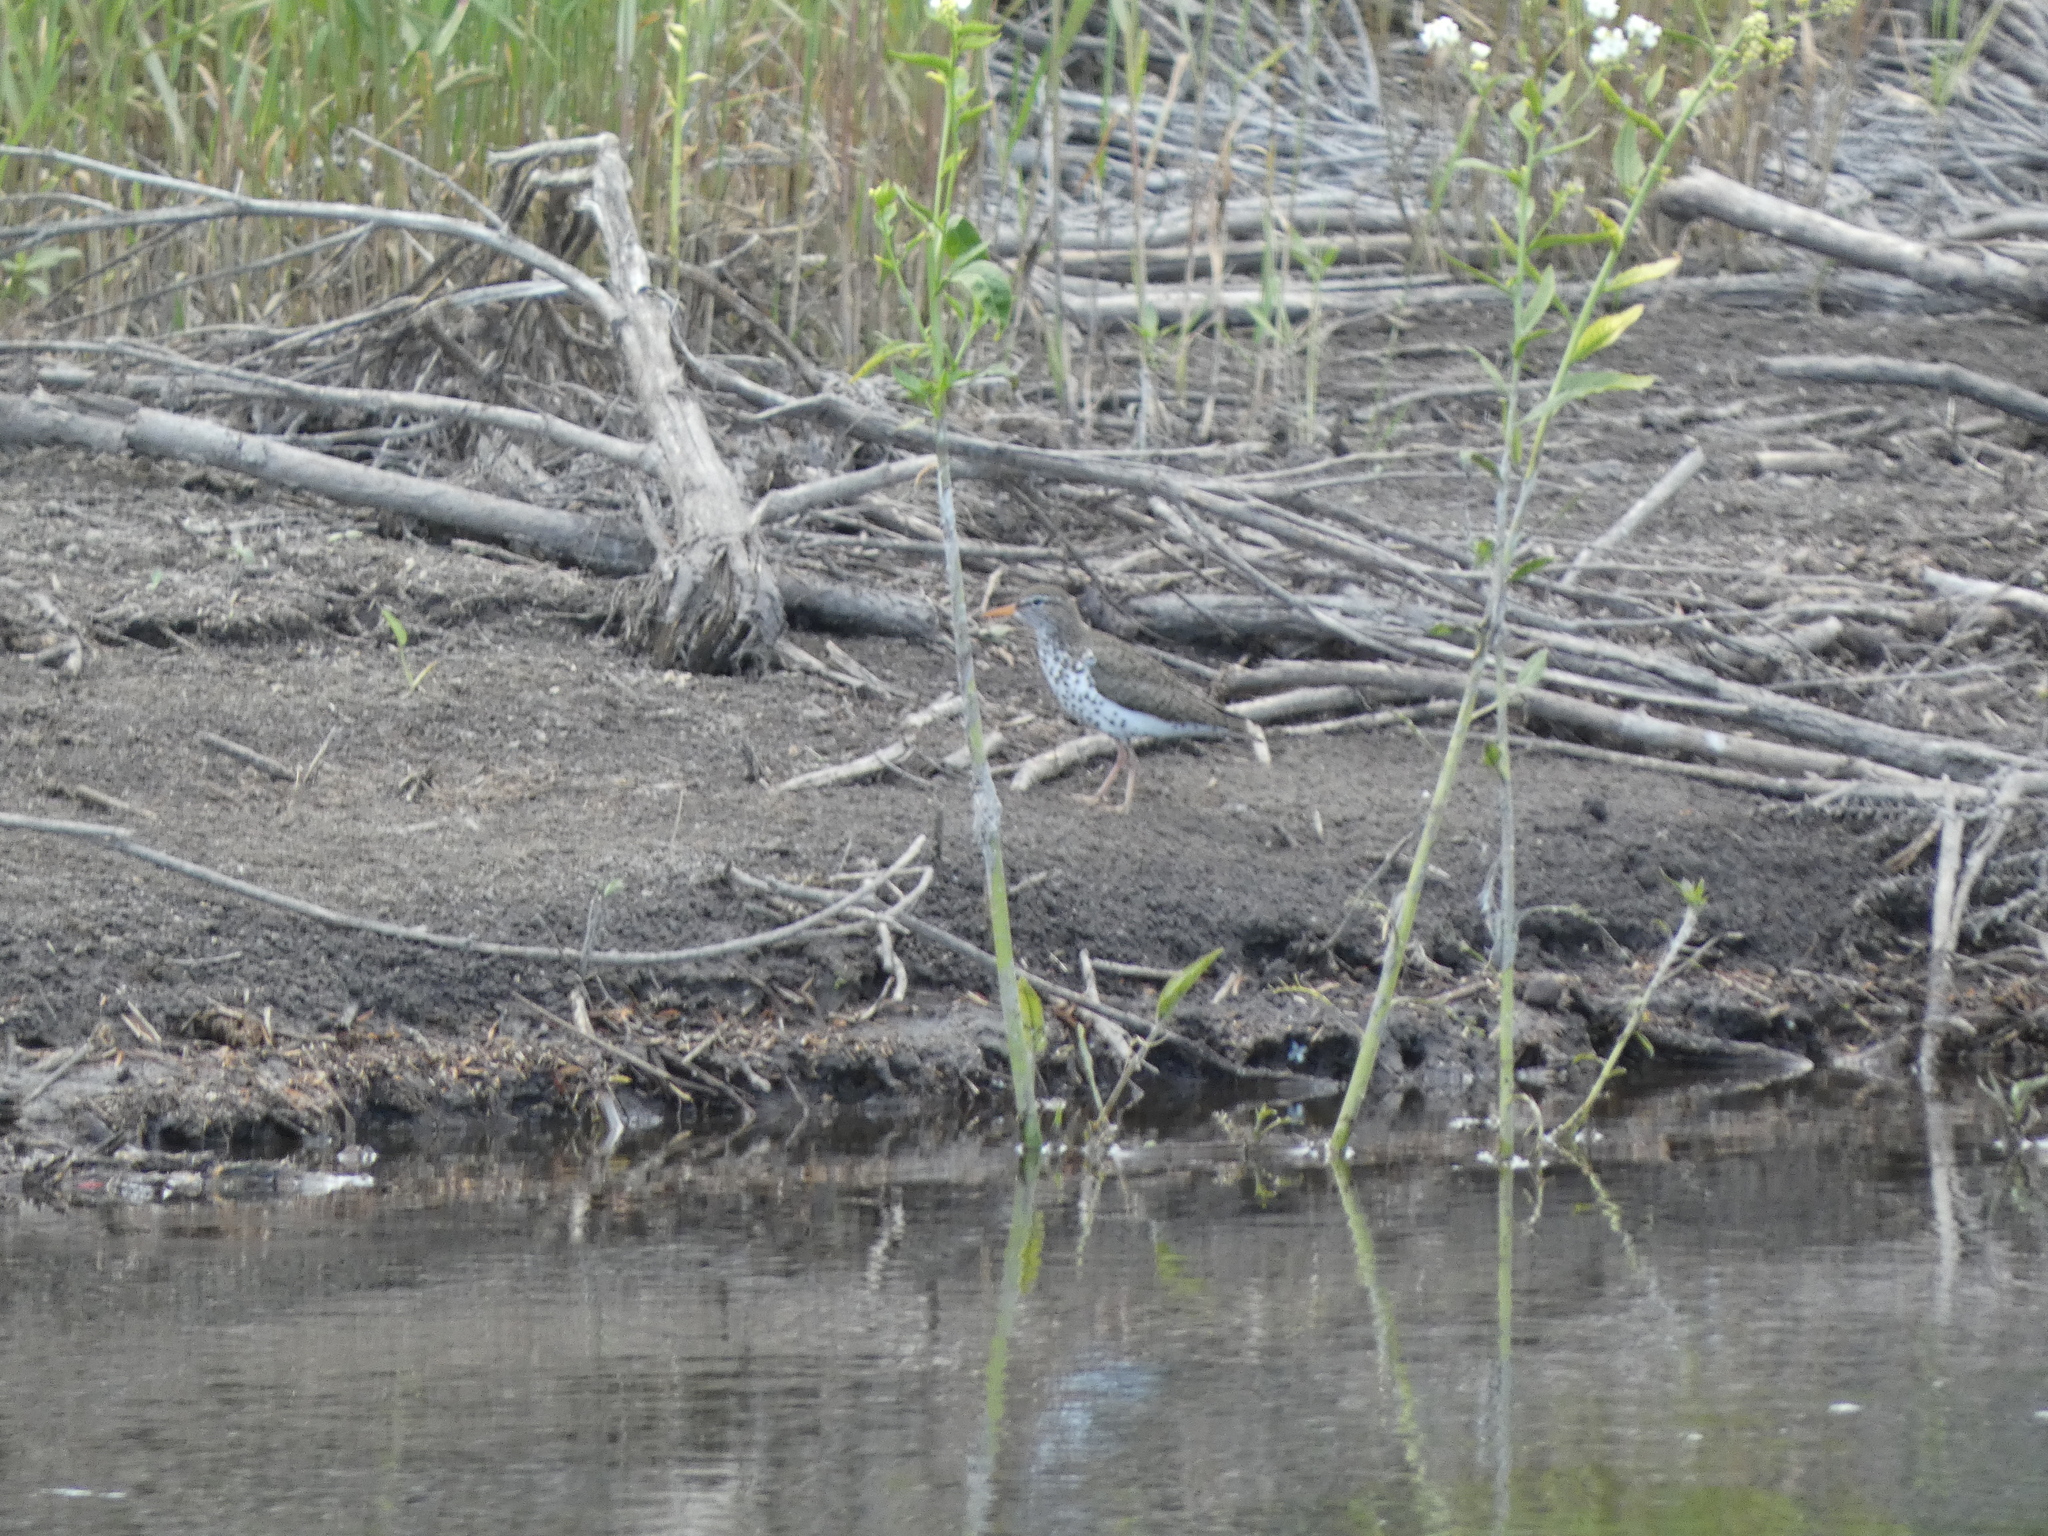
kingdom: Animalia
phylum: Chordata
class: Aves
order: Charadriiformes
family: Scolopacidae
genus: Actitis
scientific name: Actitis macularius
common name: Spotted sandpiper
